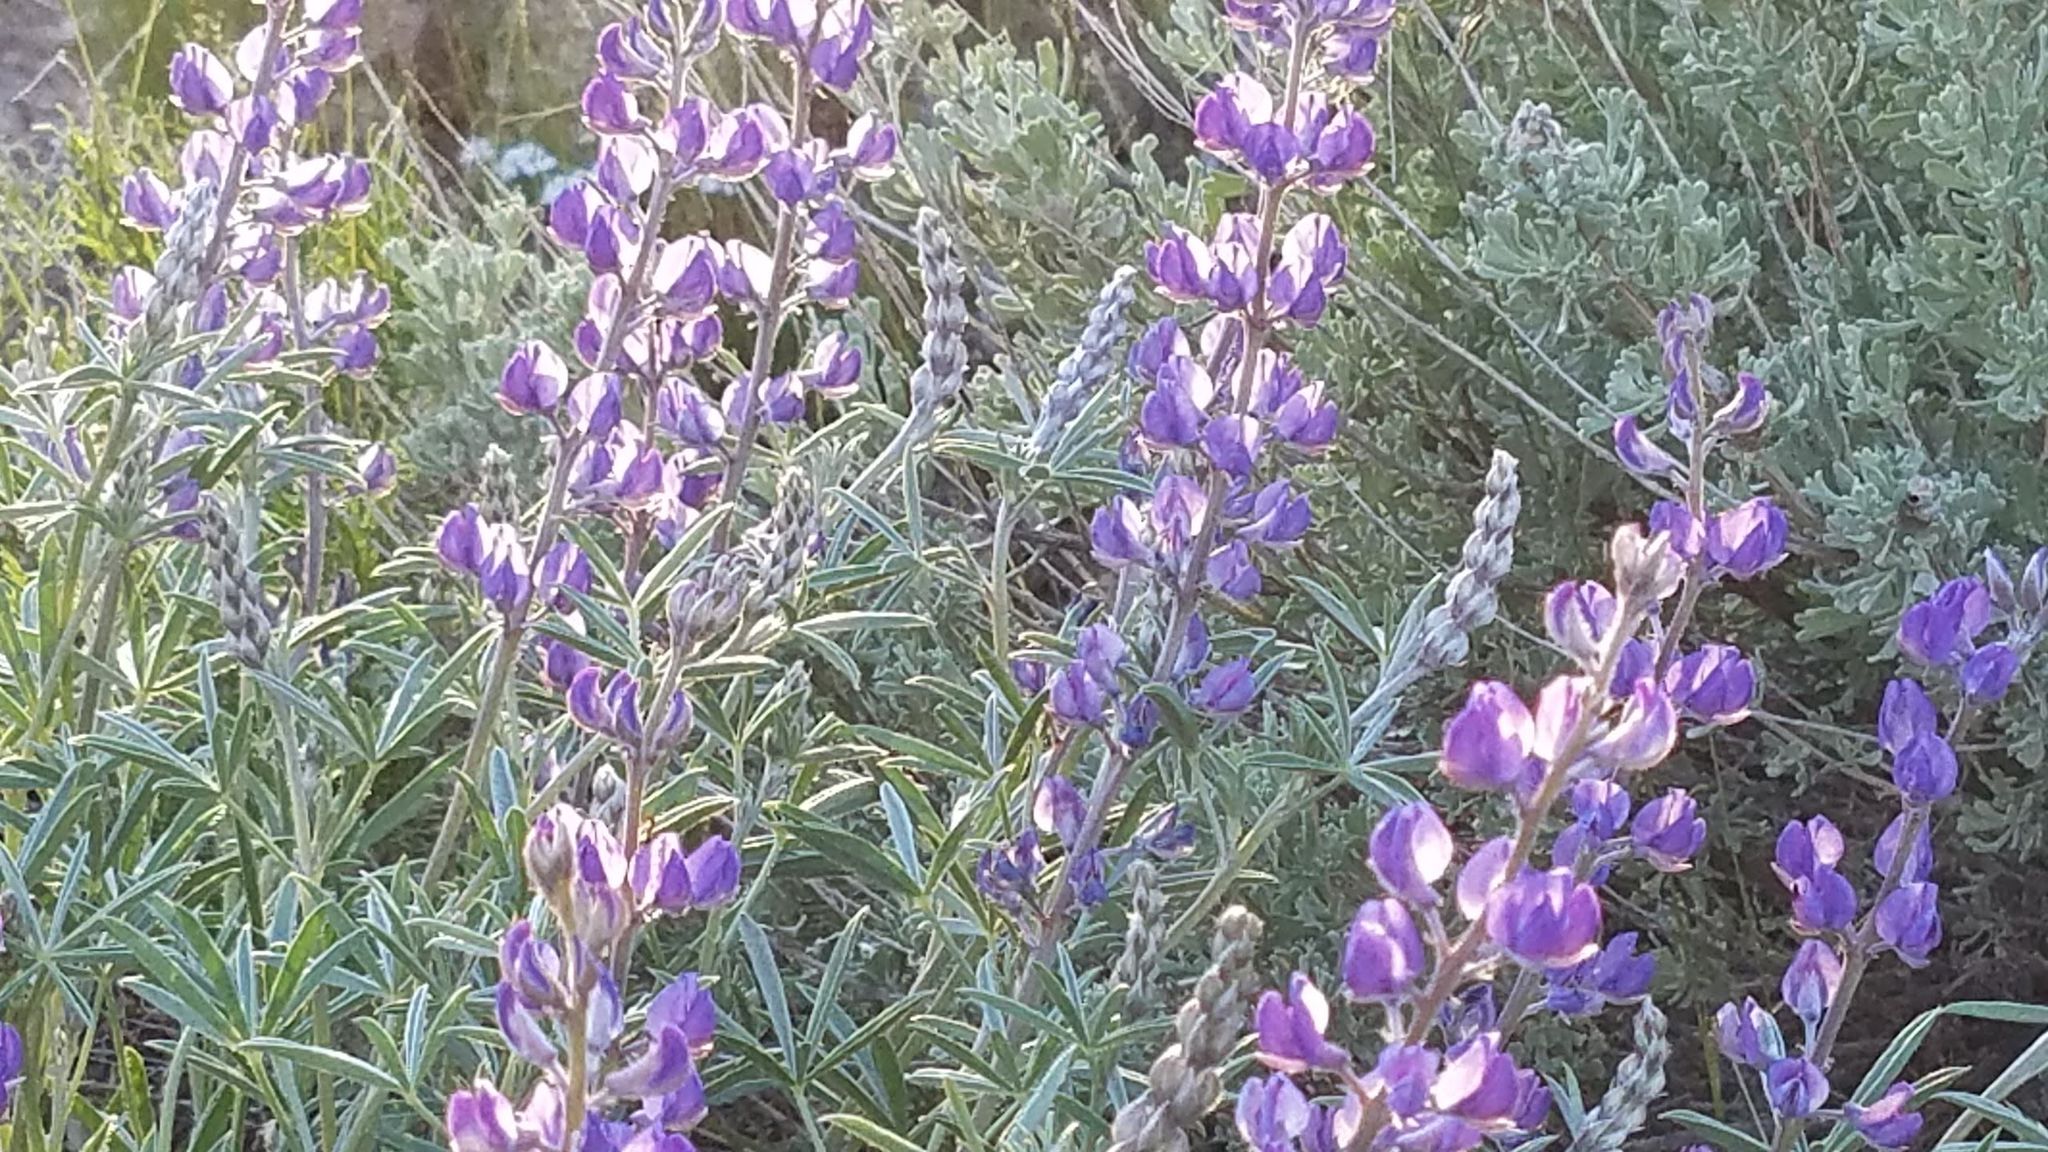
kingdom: Plantae
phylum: Tracheophyta
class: Magnoliopsida
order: Fabales
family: Fabaceae
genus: Lupinus
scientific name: Lupinus argenteus
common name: Silvery lupine
